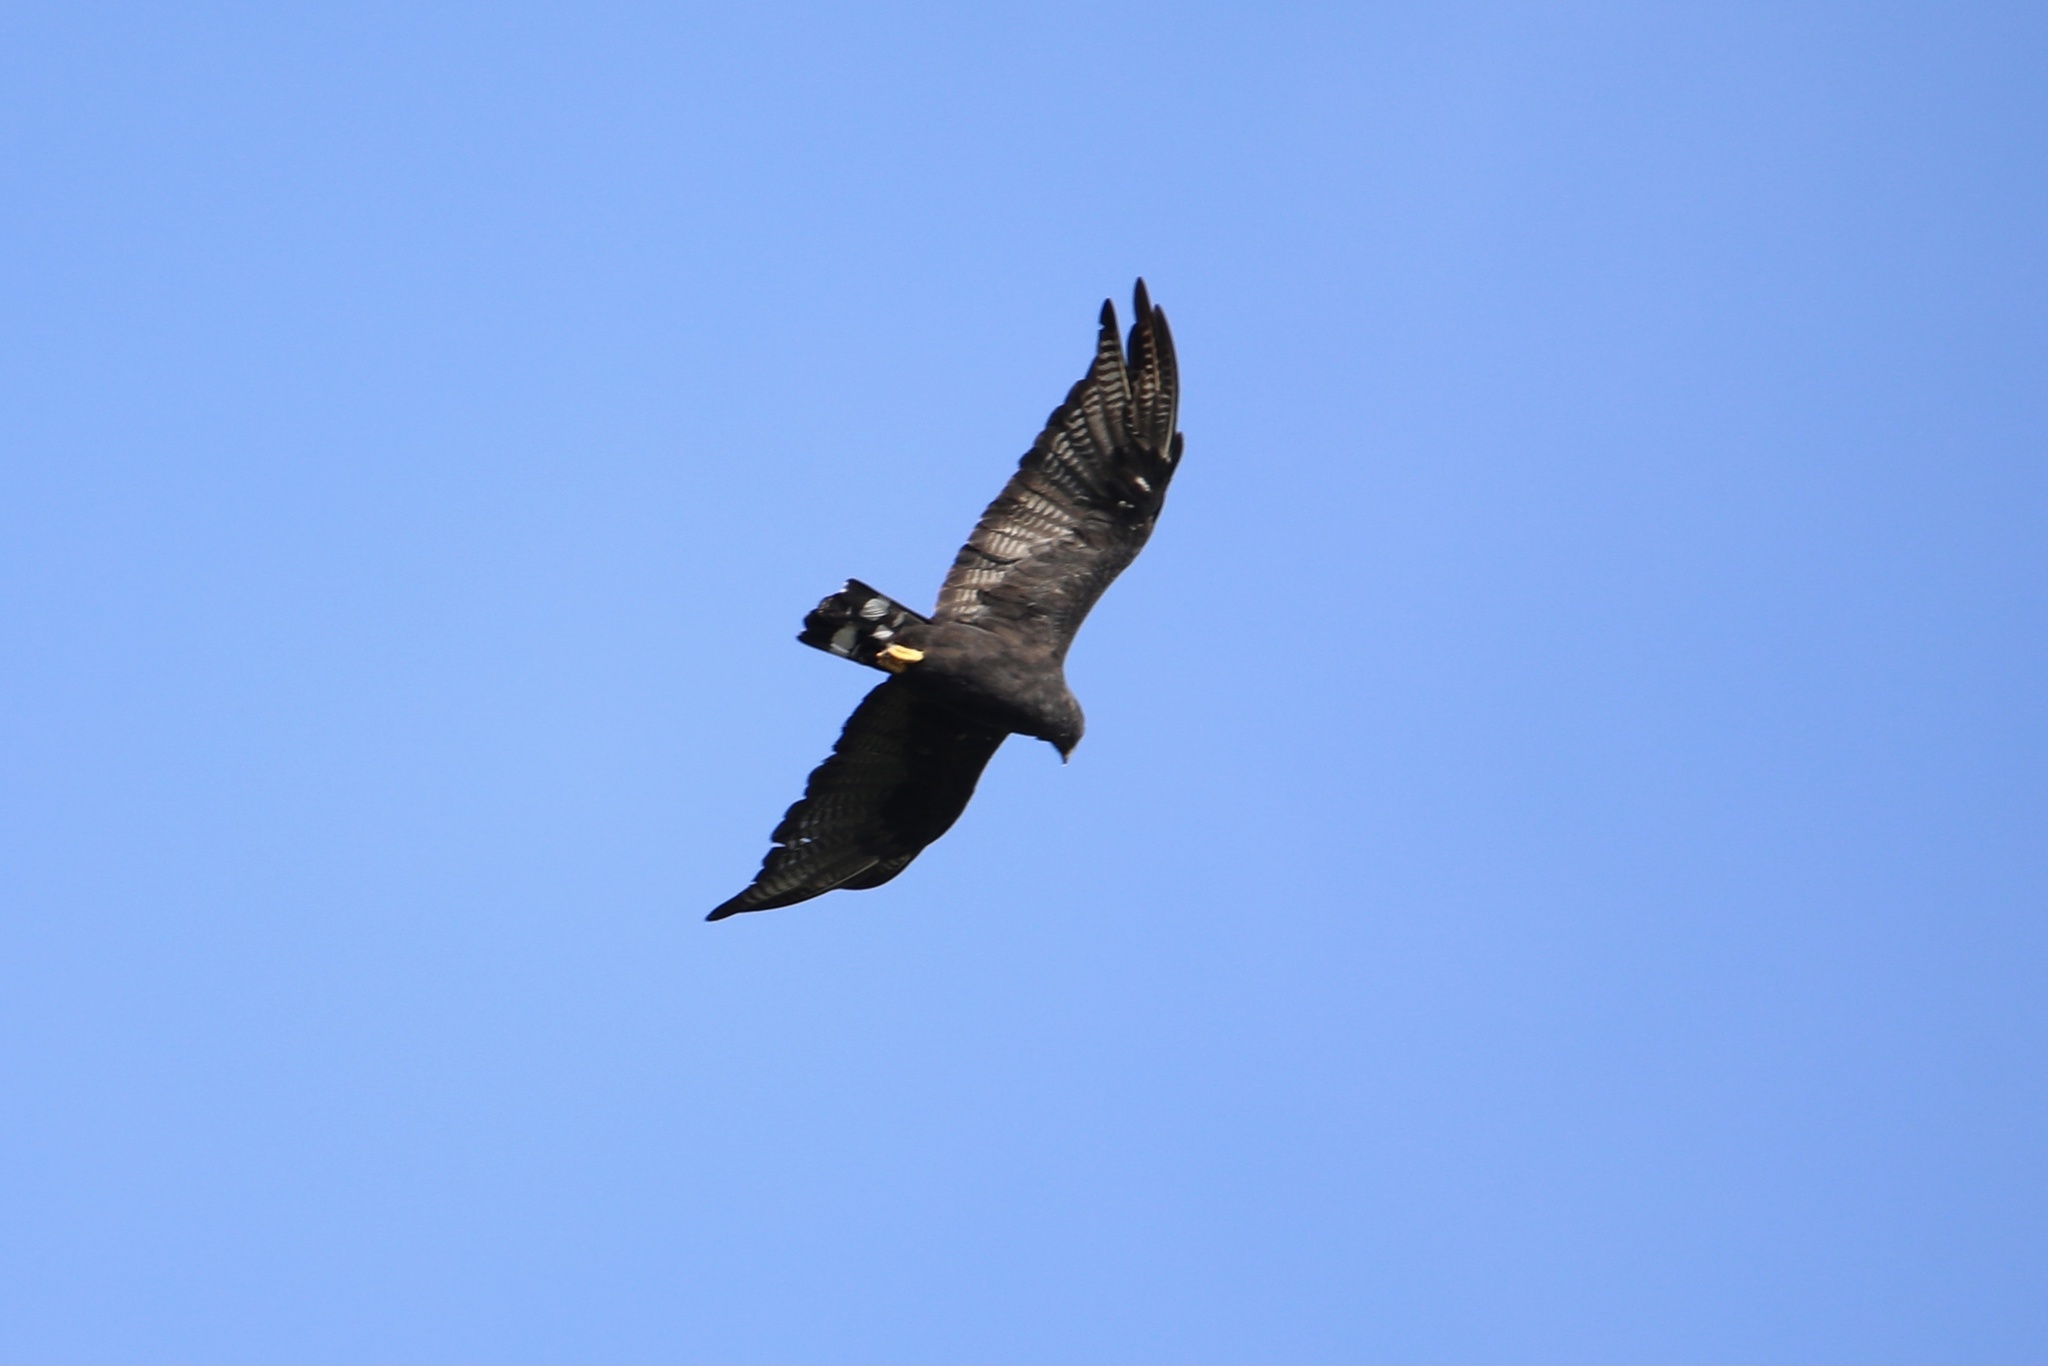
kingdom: Animalia
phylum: Chordata
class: Aves
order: Accipitriformes
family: Accipitridae
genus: Buteo
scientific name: Buteo albonotatus
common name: Zone-tailed hawk
